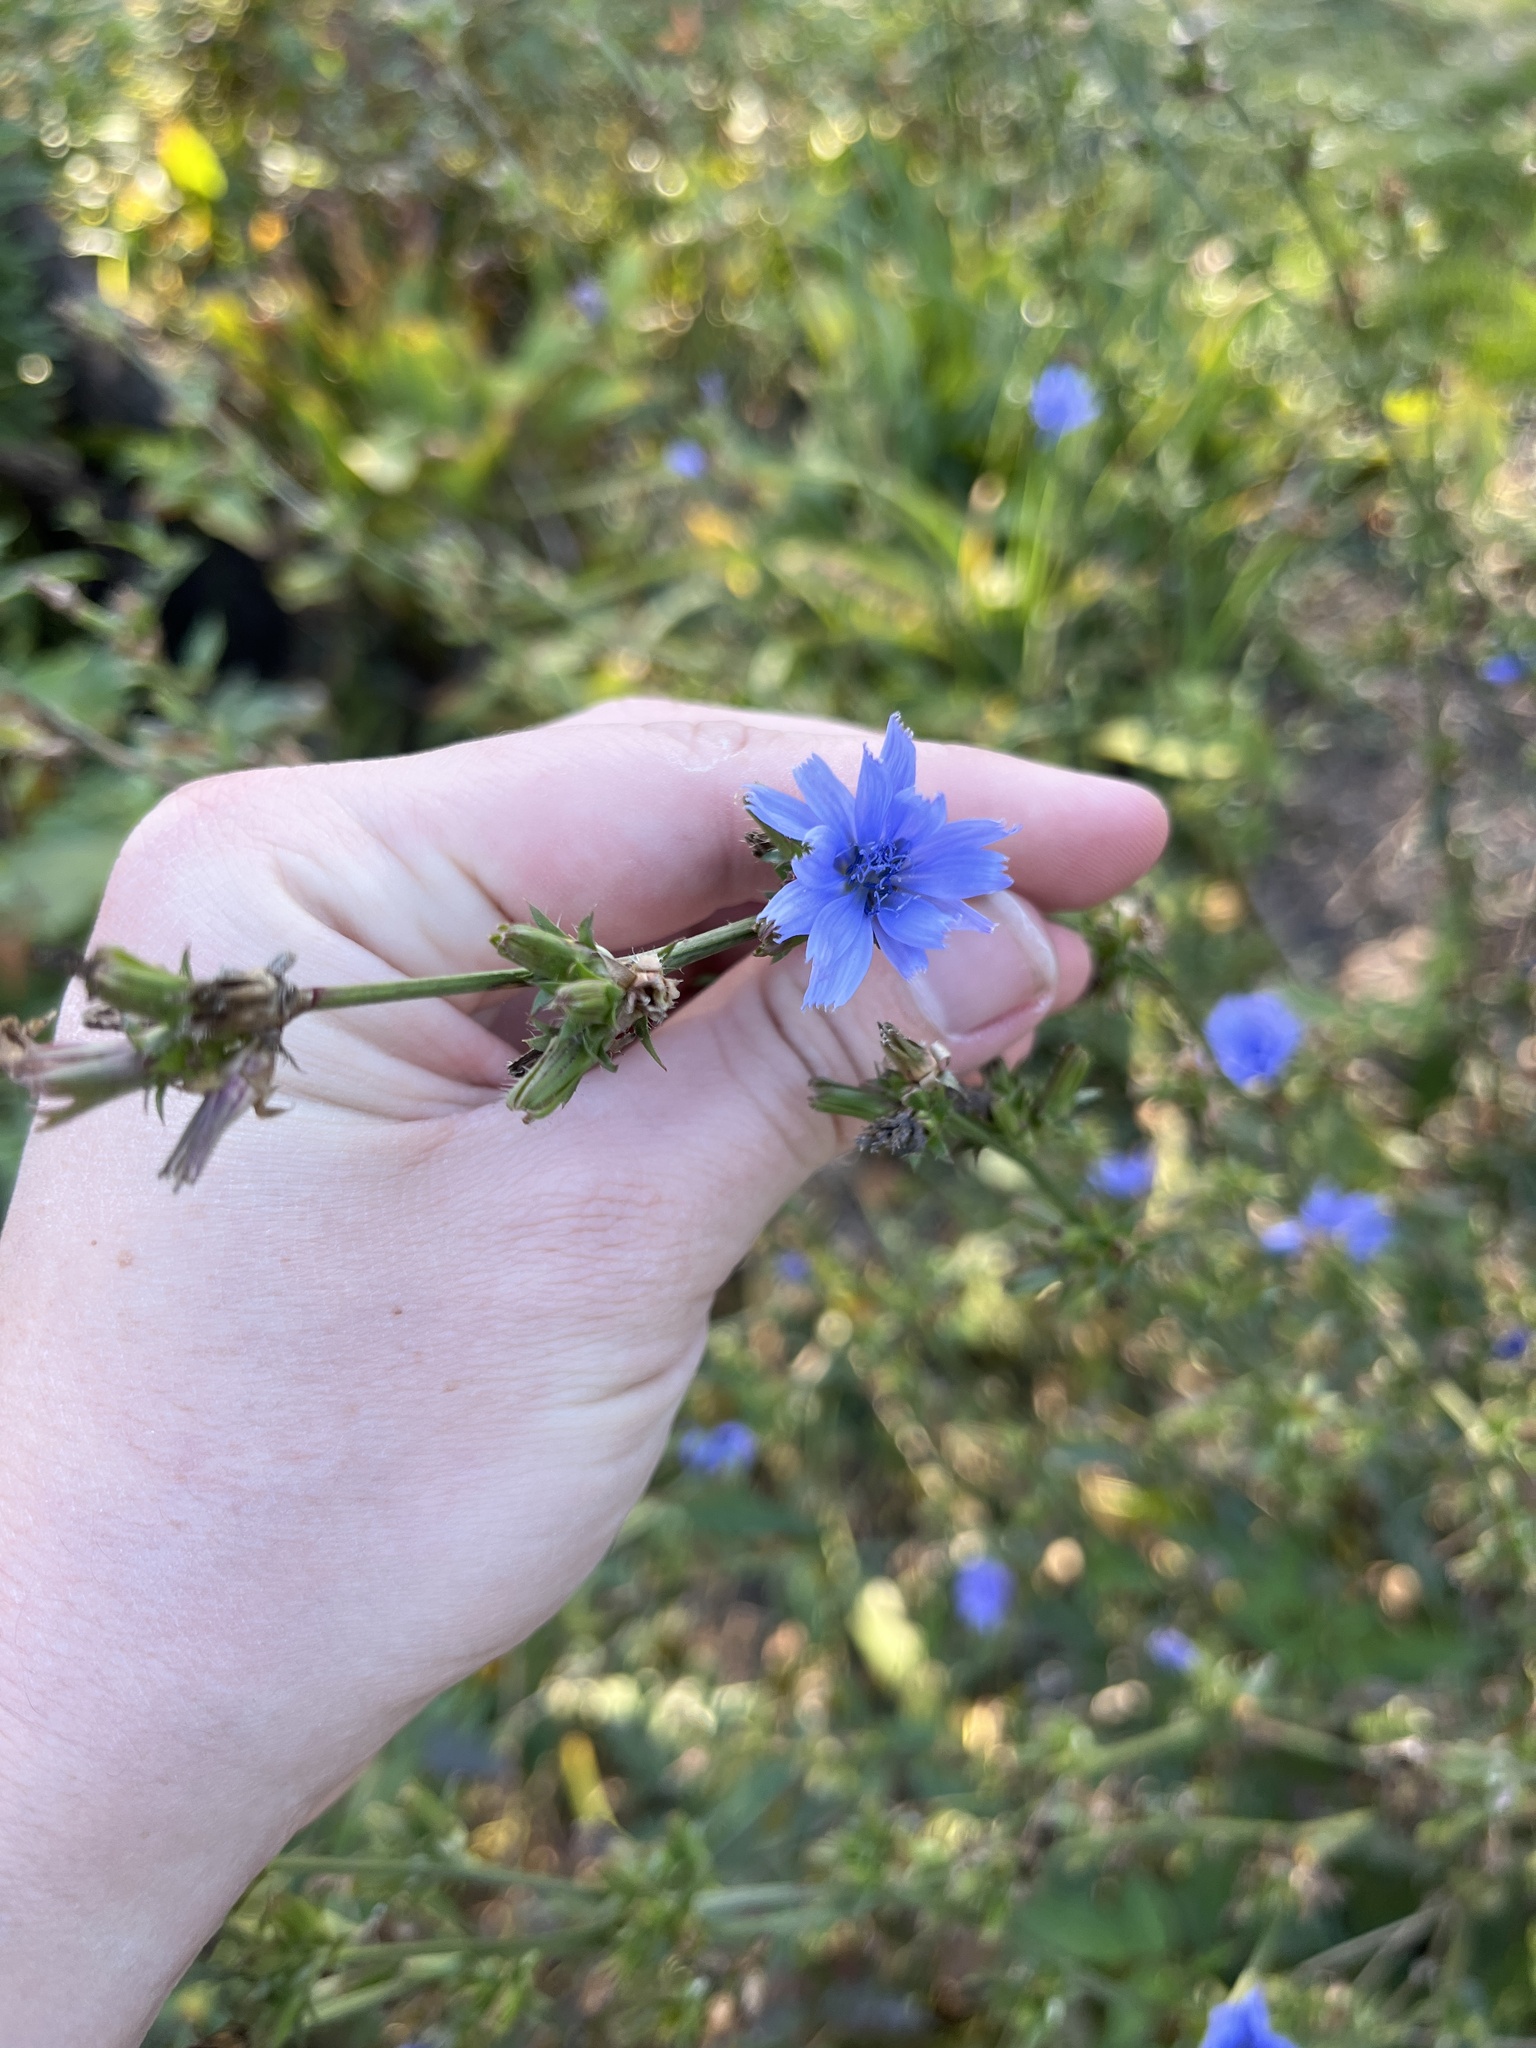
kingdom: Plantae
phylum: Tracheophyta
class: Magnoliopsida
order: Asterales
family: Asteraceae
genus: Cichorium
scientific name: Cichorium intybus
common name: Chicory
